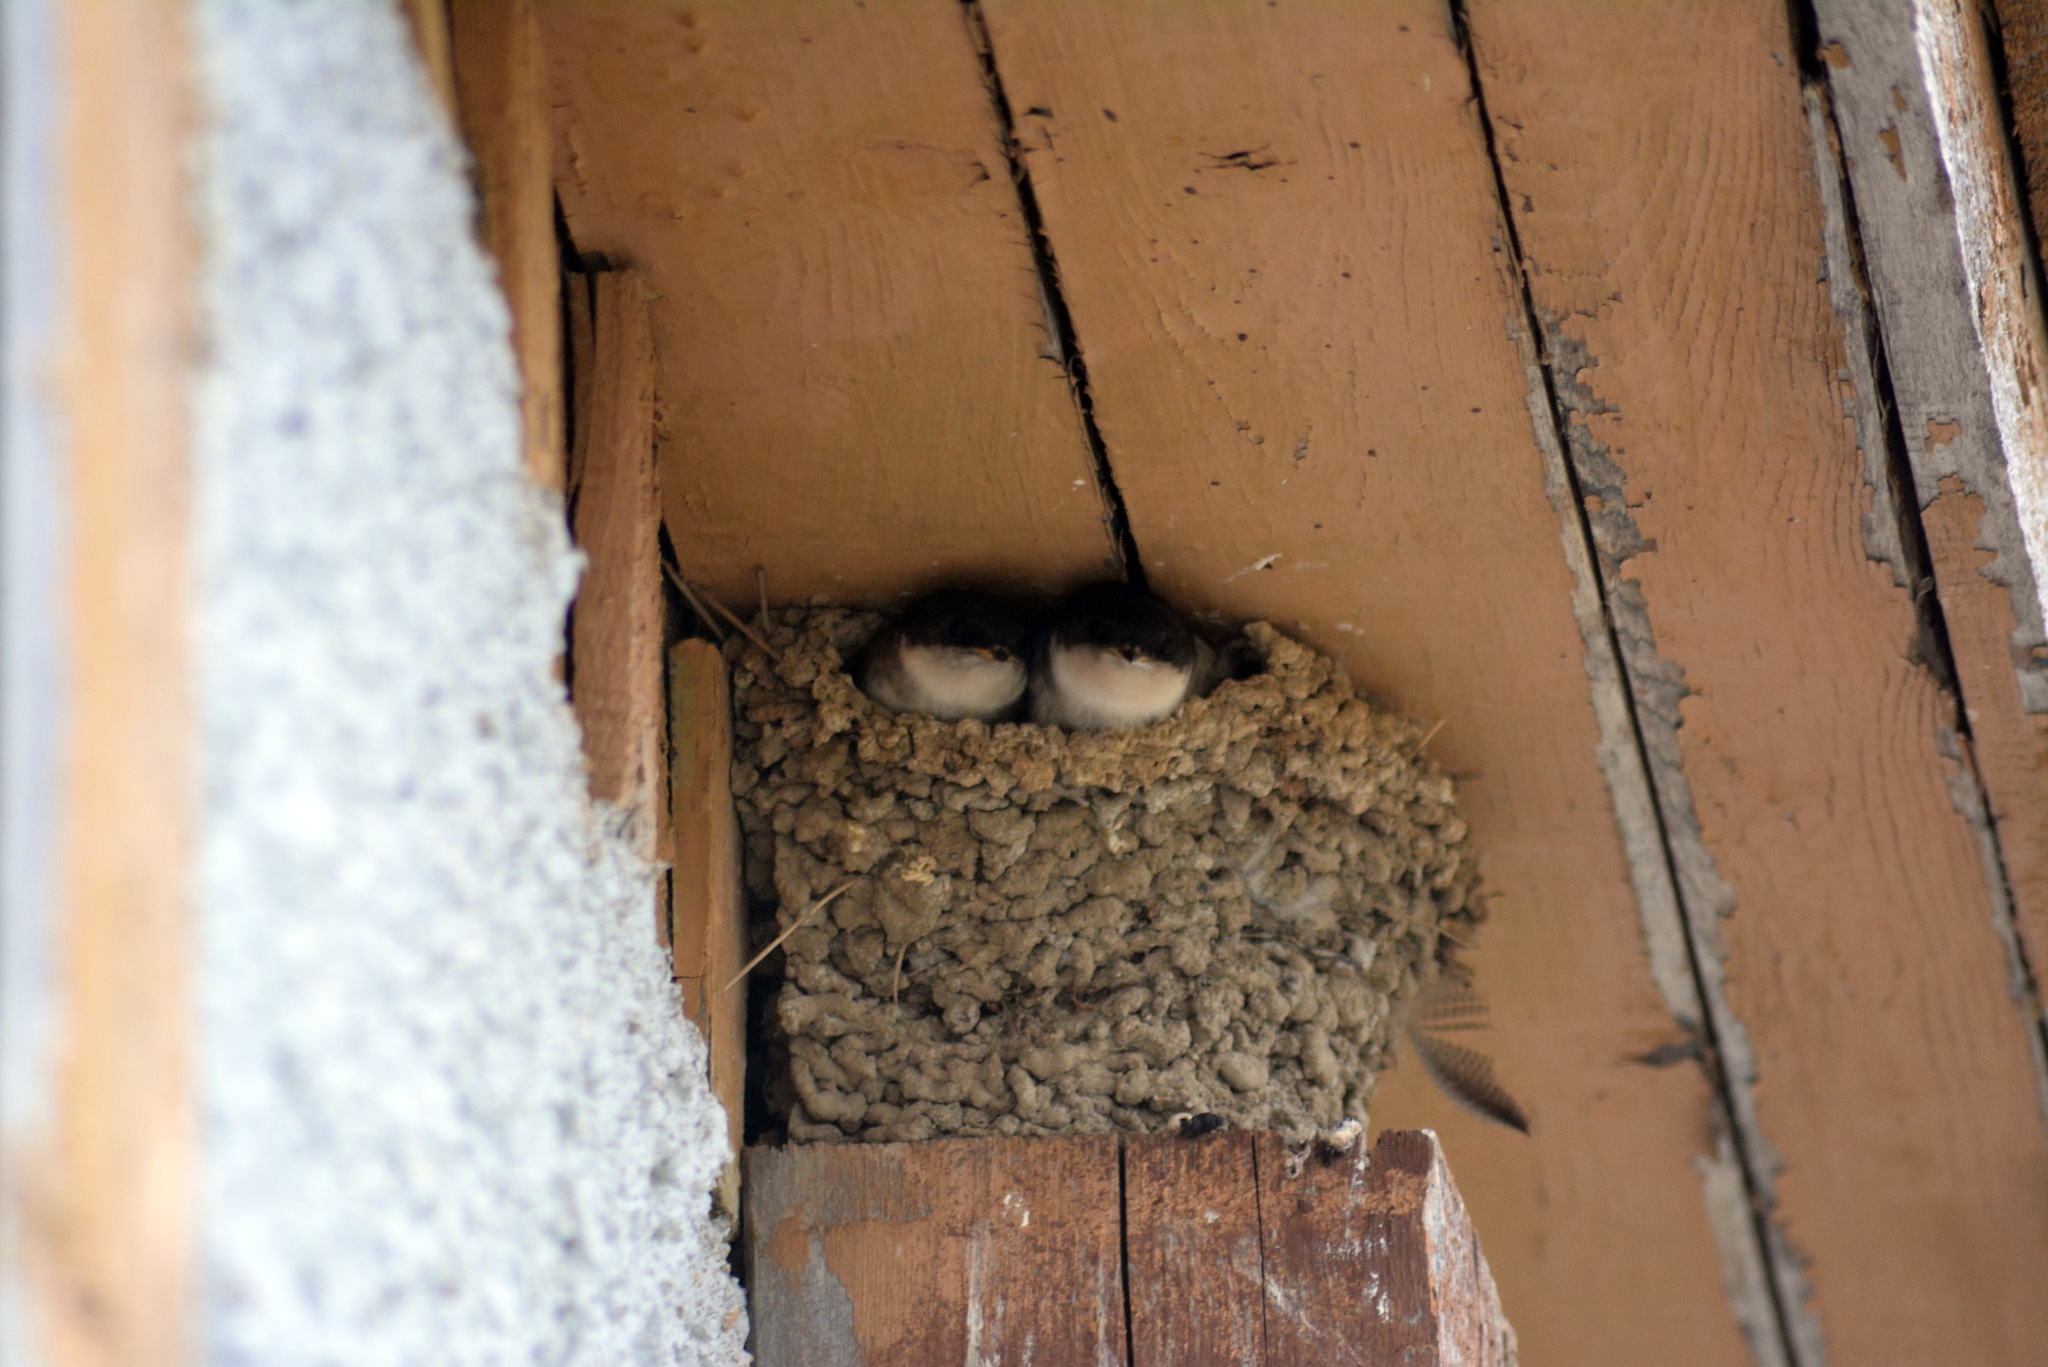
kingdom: Animalia
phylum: Chordata
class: Aves
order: Passeriformes
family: Hirundinidae
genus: Delichon
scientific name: Delichon urbicum
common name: Common house martin
